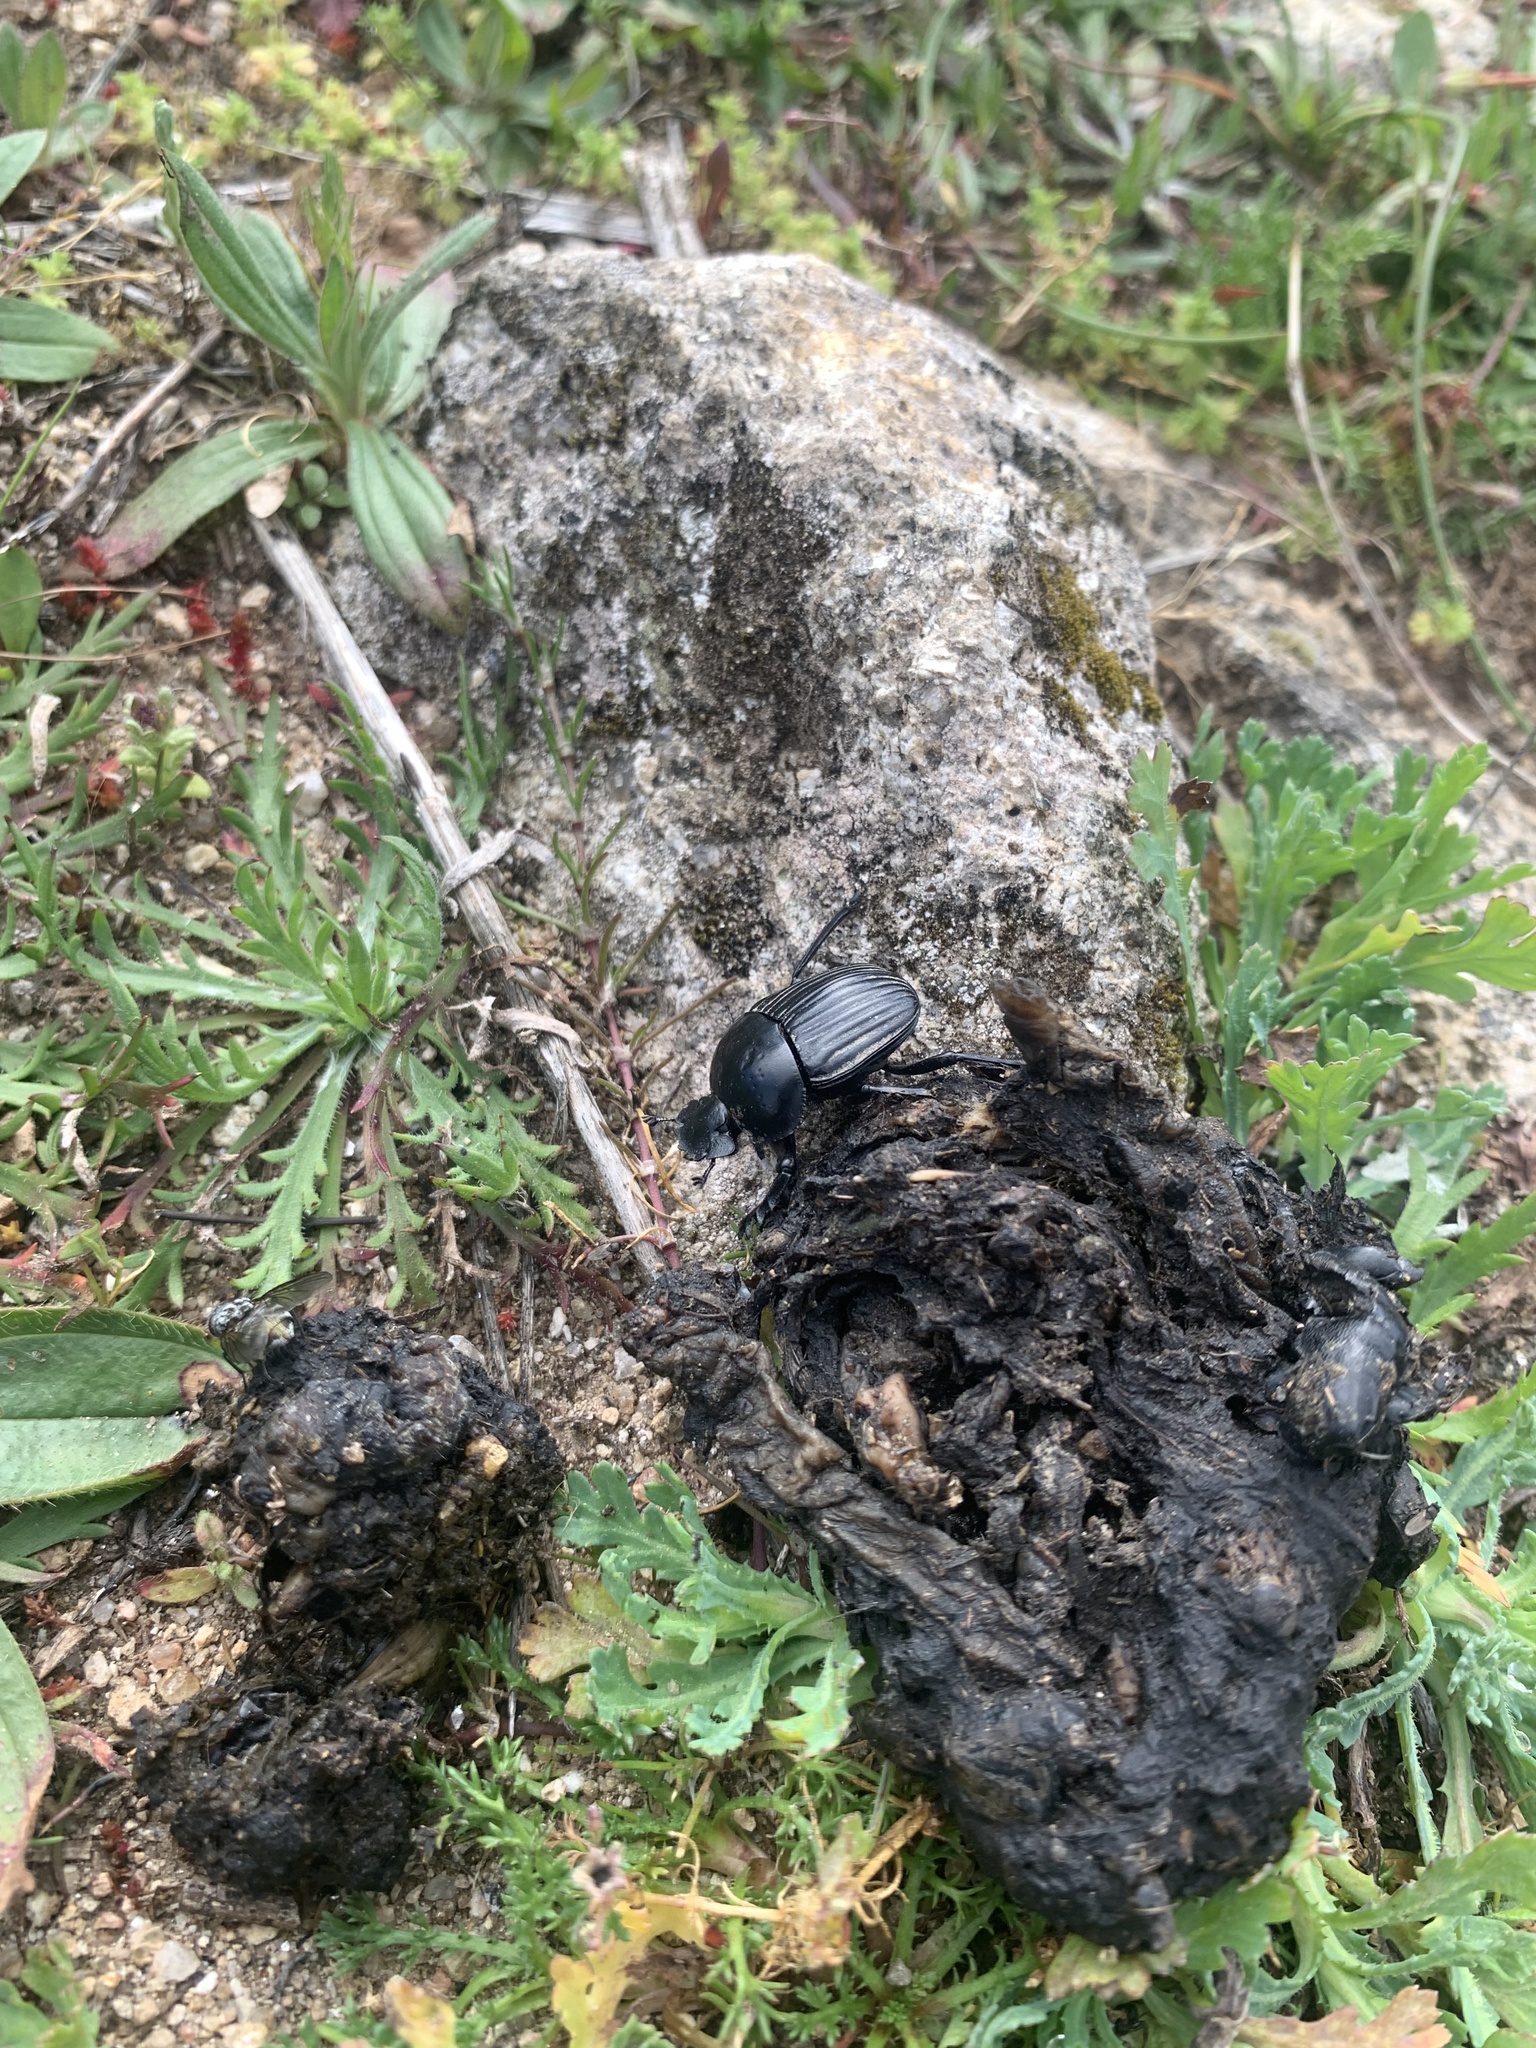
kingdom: Animalia
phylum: Arthropoda
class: Insecta
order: Coleoptera
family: Scarabaeidae
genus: Ateuchetus
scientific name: Ateuchetus laticollis
